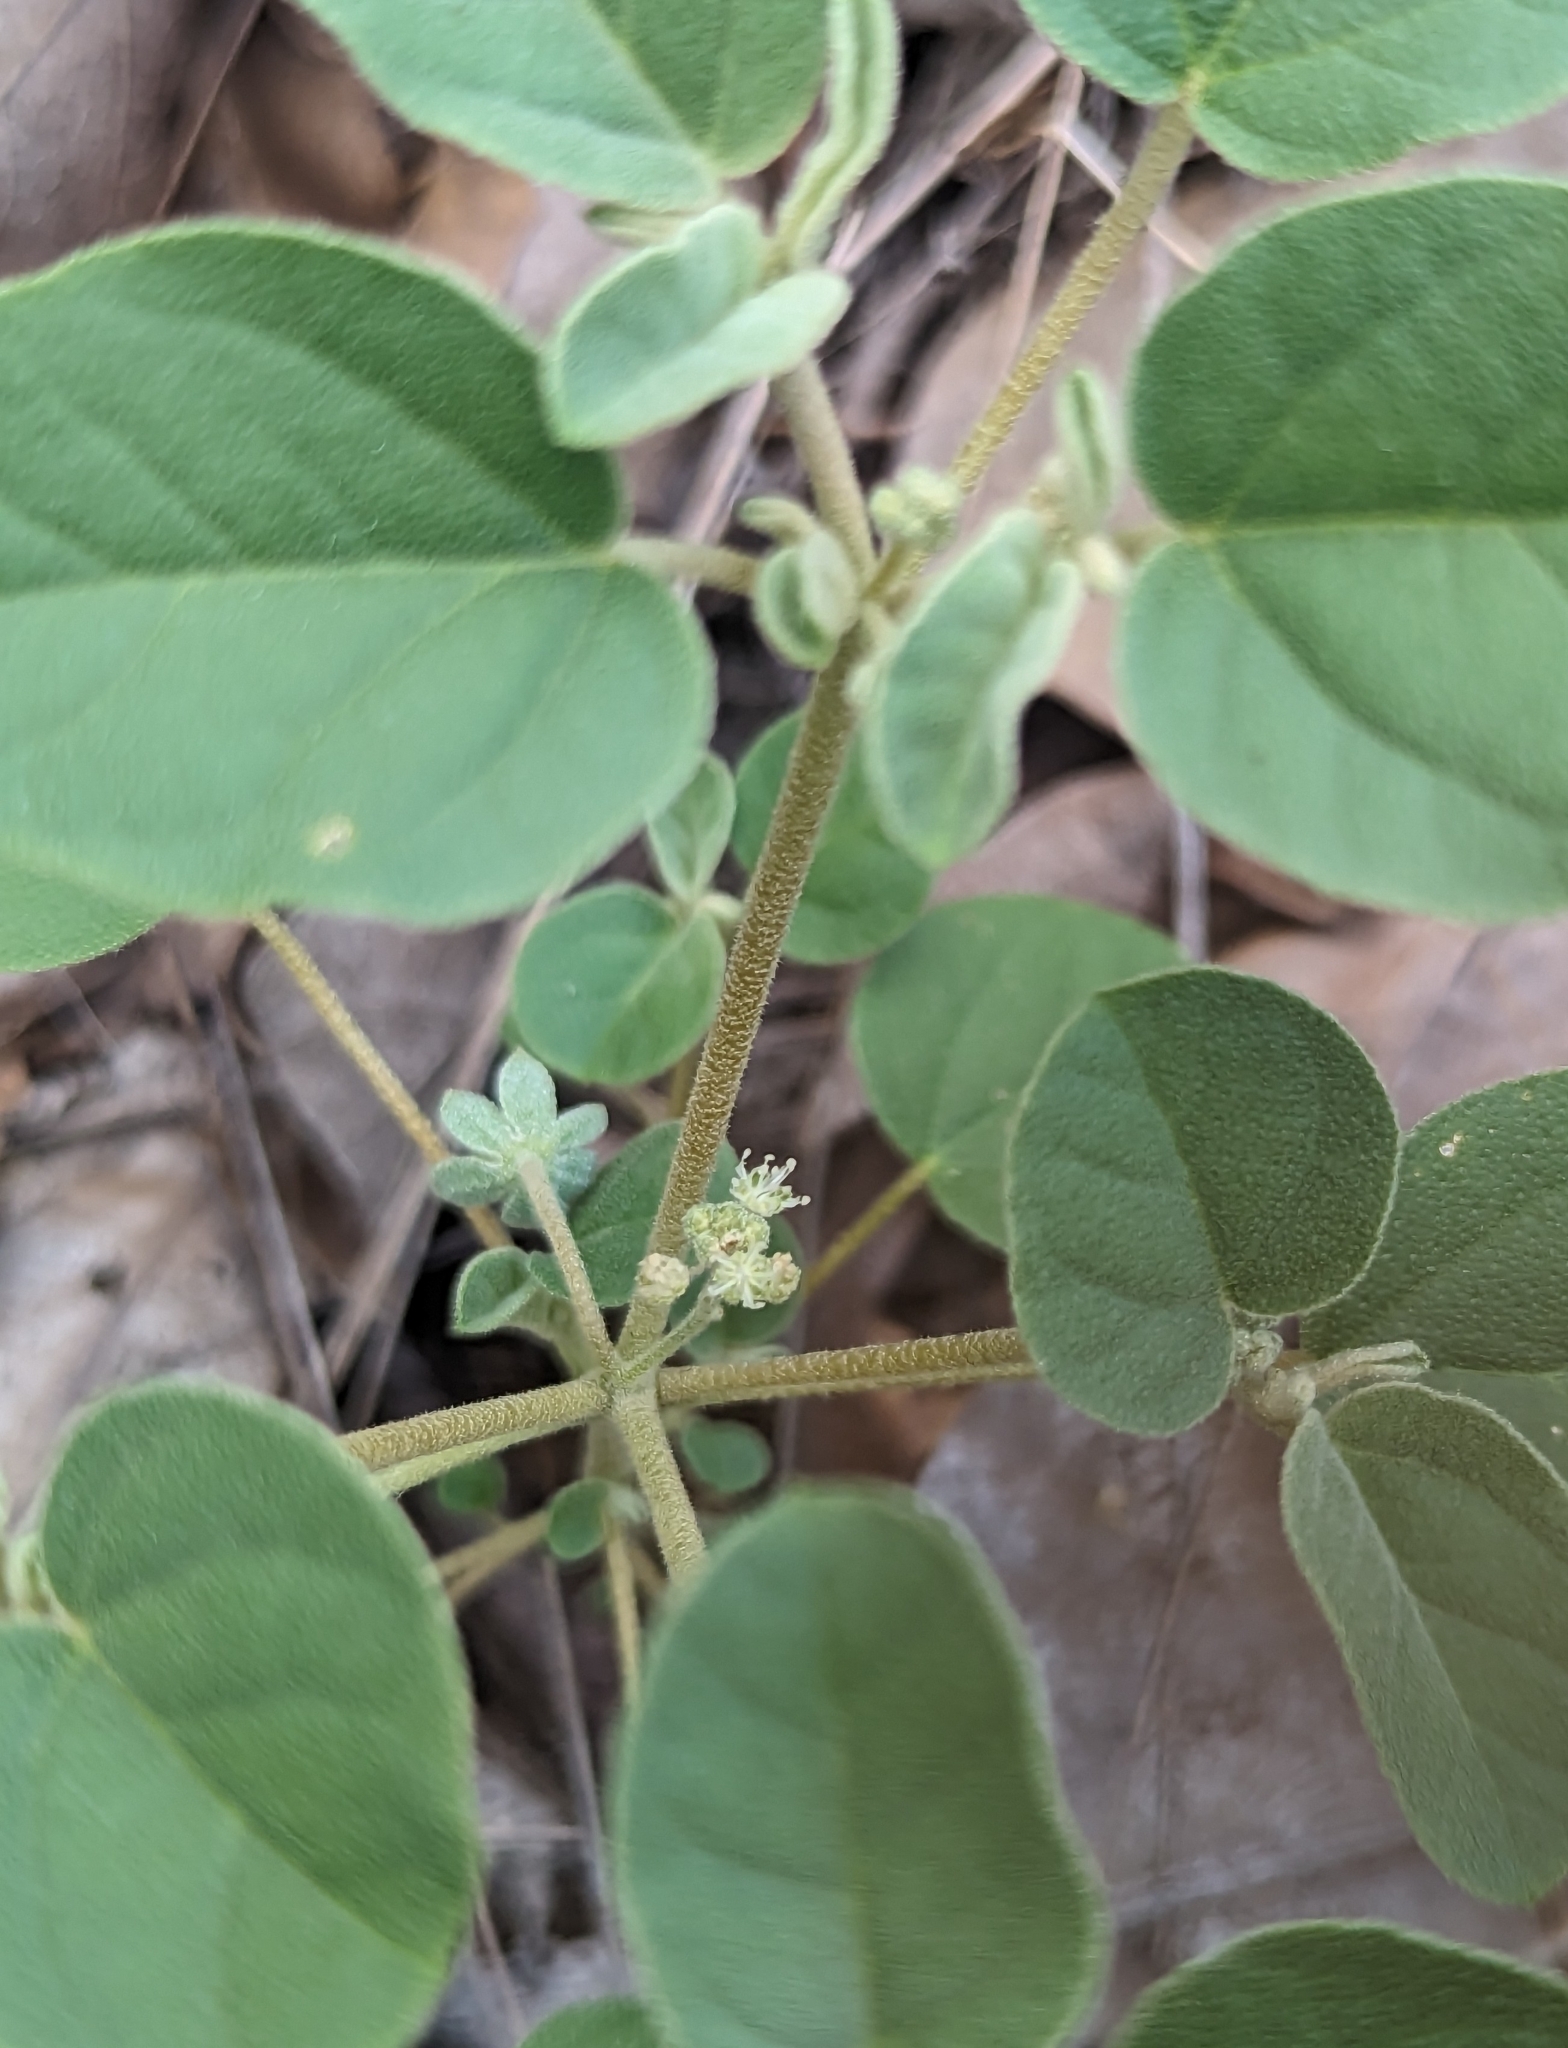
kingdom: Plantae
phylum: Tracheophyta
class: Magnoliopsida
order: Malpighiales
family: Euphorbiaceae
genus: Croton
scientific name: Croton lindheimerianus
